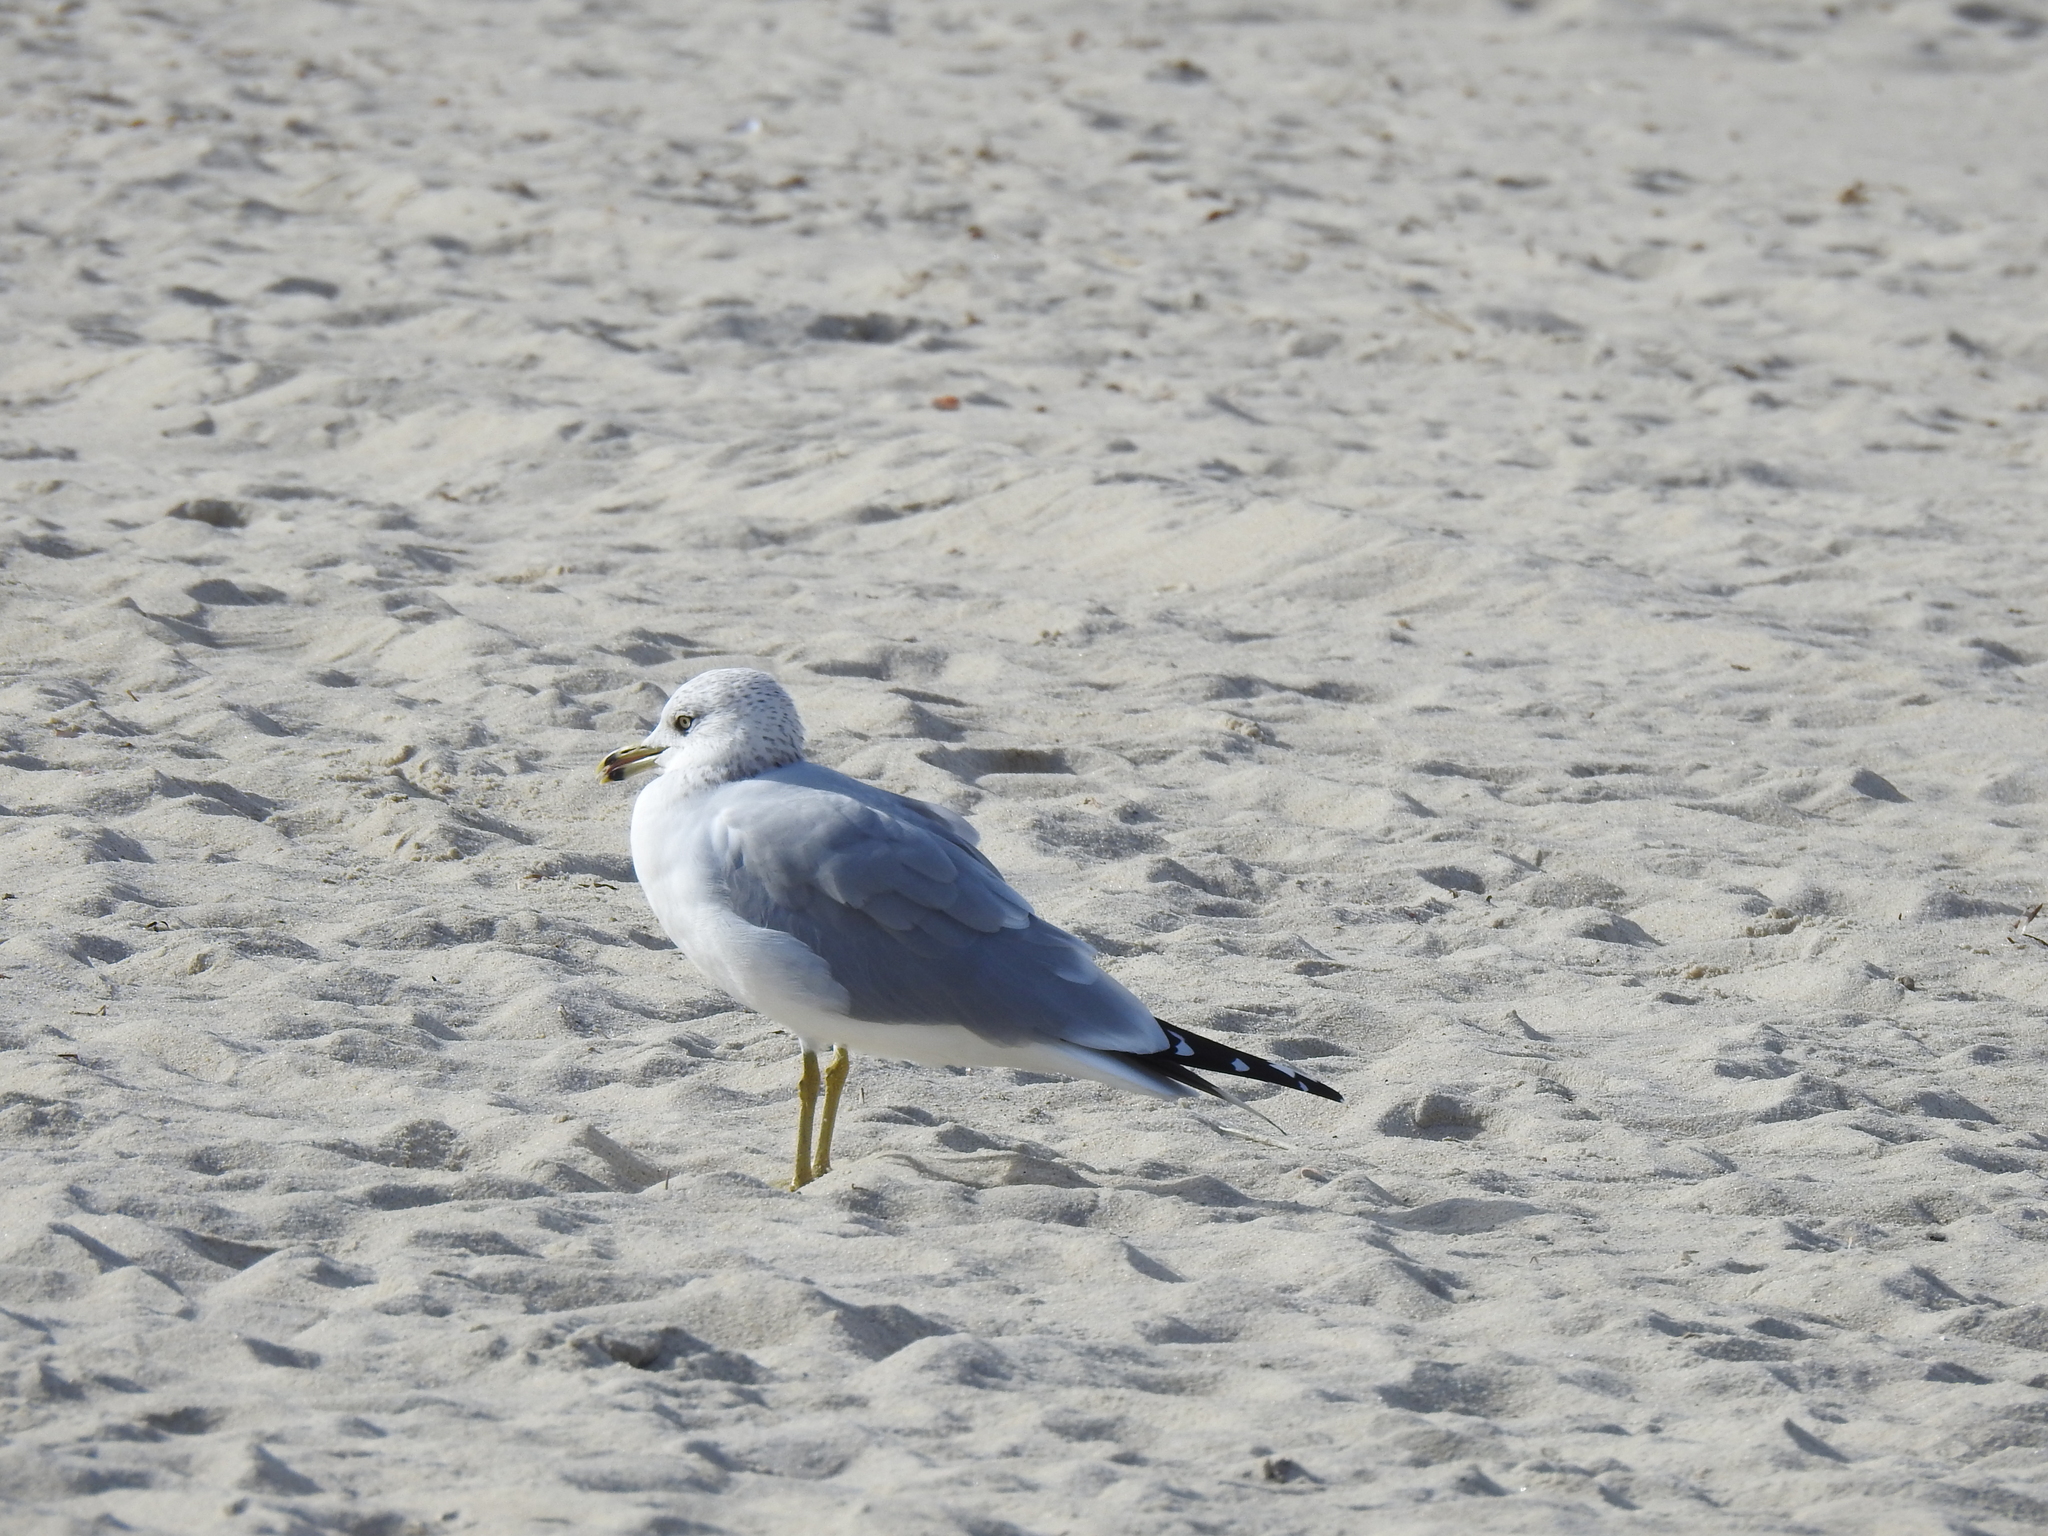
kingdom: Animalia
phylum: Chordata
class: Aves
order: Charadriiformes
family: Laridae
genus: Larus
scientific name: Larus delawarensis
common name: Ring-billed gull
